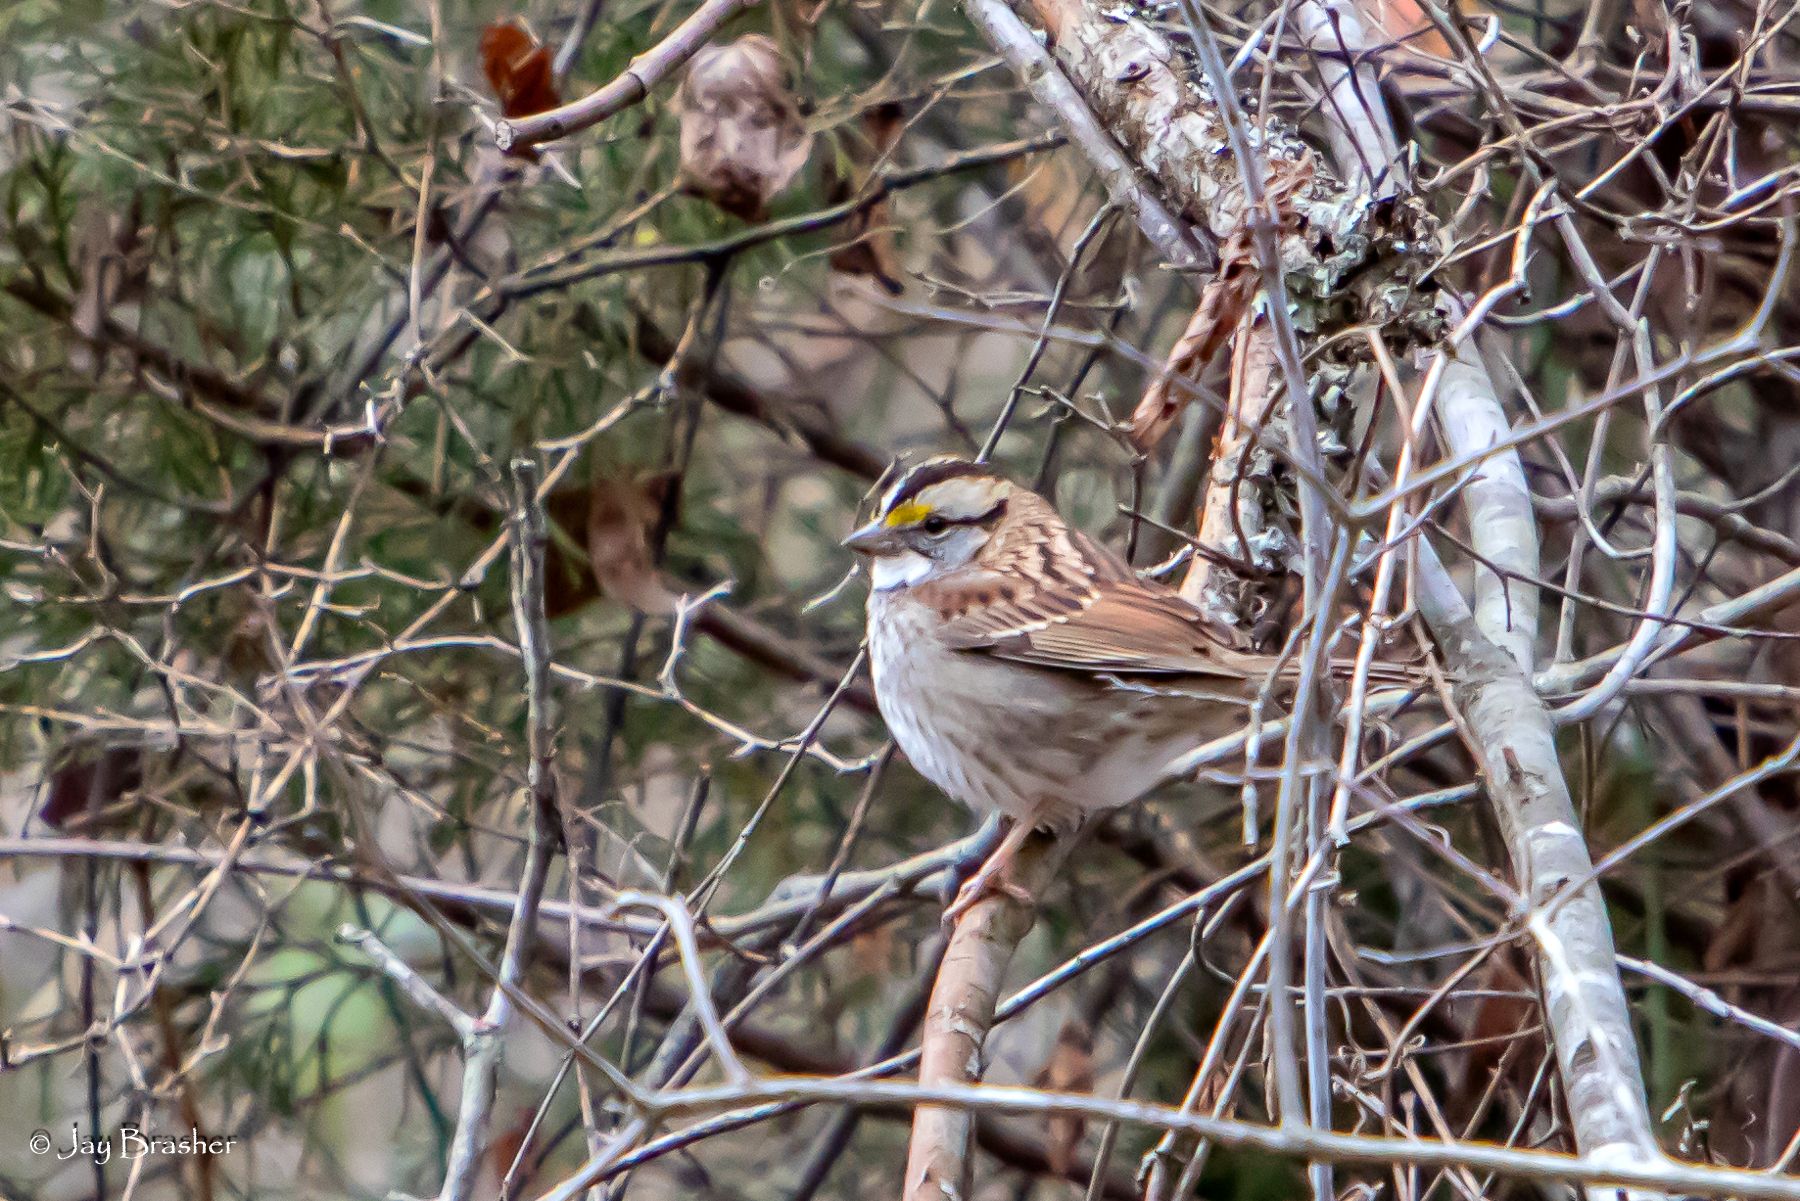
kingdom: Animalia
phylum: Chordata
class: Aves
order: Passeriformes
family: Passerellidae
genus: Zonotrichia
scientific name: Zonotrichia albicollis
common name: White-throated sparrow
